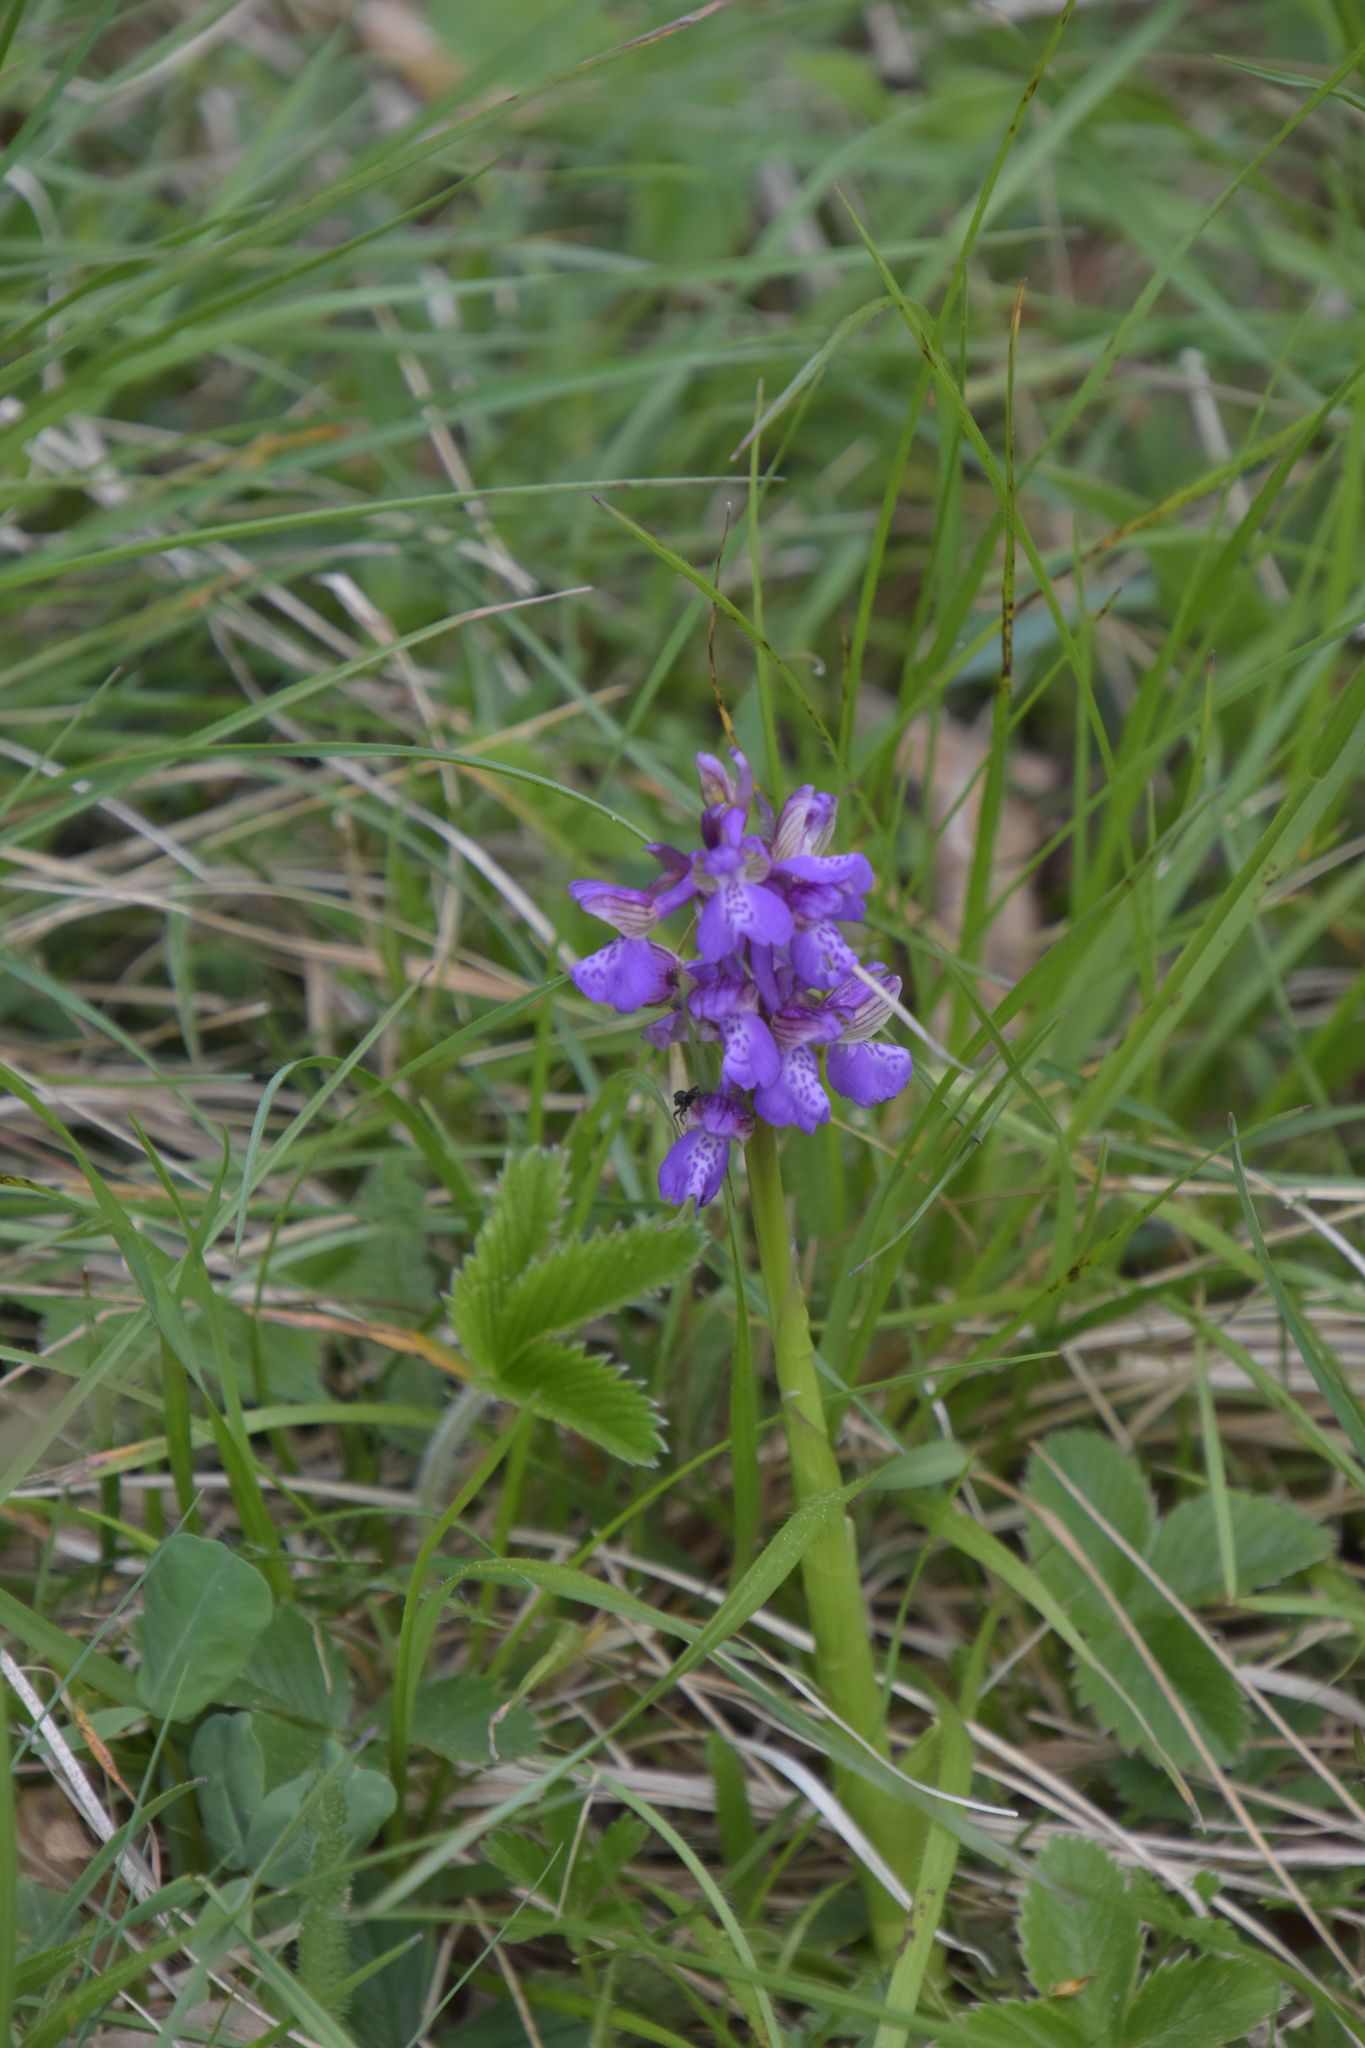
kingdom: Plantae
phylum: Tracheophyta
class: Liliopsida
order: Asparagales
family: Orchidaceae
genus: Anacamptis
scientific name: Anacamptis morio
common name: Green-winged orchid
